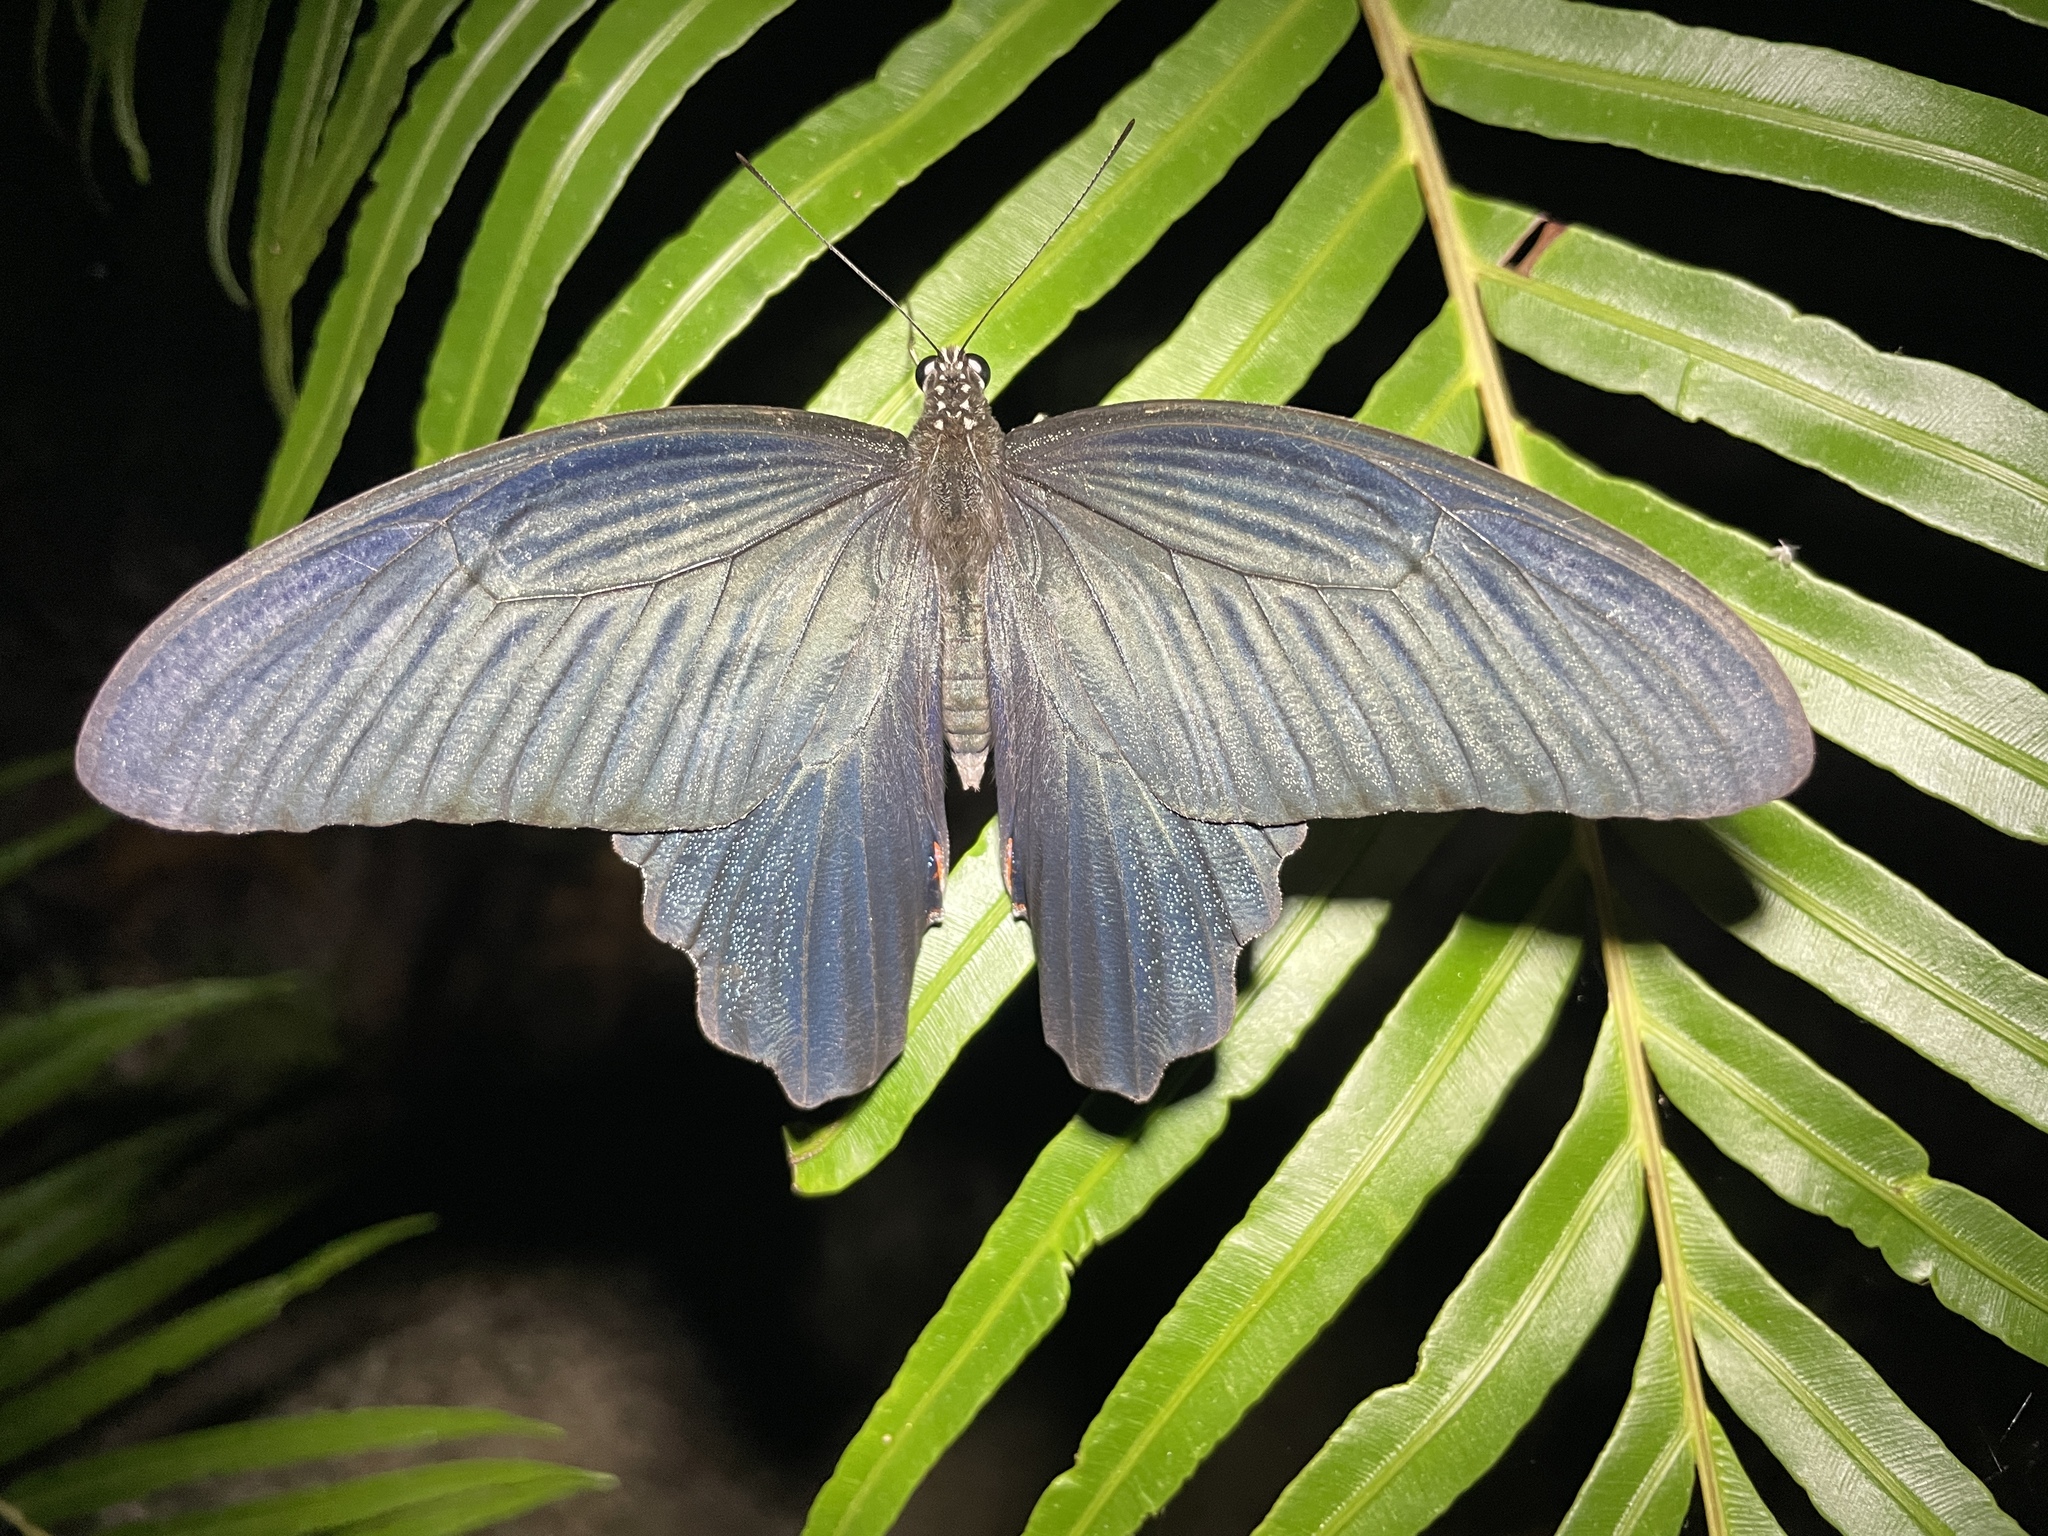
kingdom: Animalia
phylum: Arthropoda
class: Insecta
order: Lepidoptera
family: Papilionidae
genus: Papilio
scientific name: Papilio protenor
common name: Spangle
